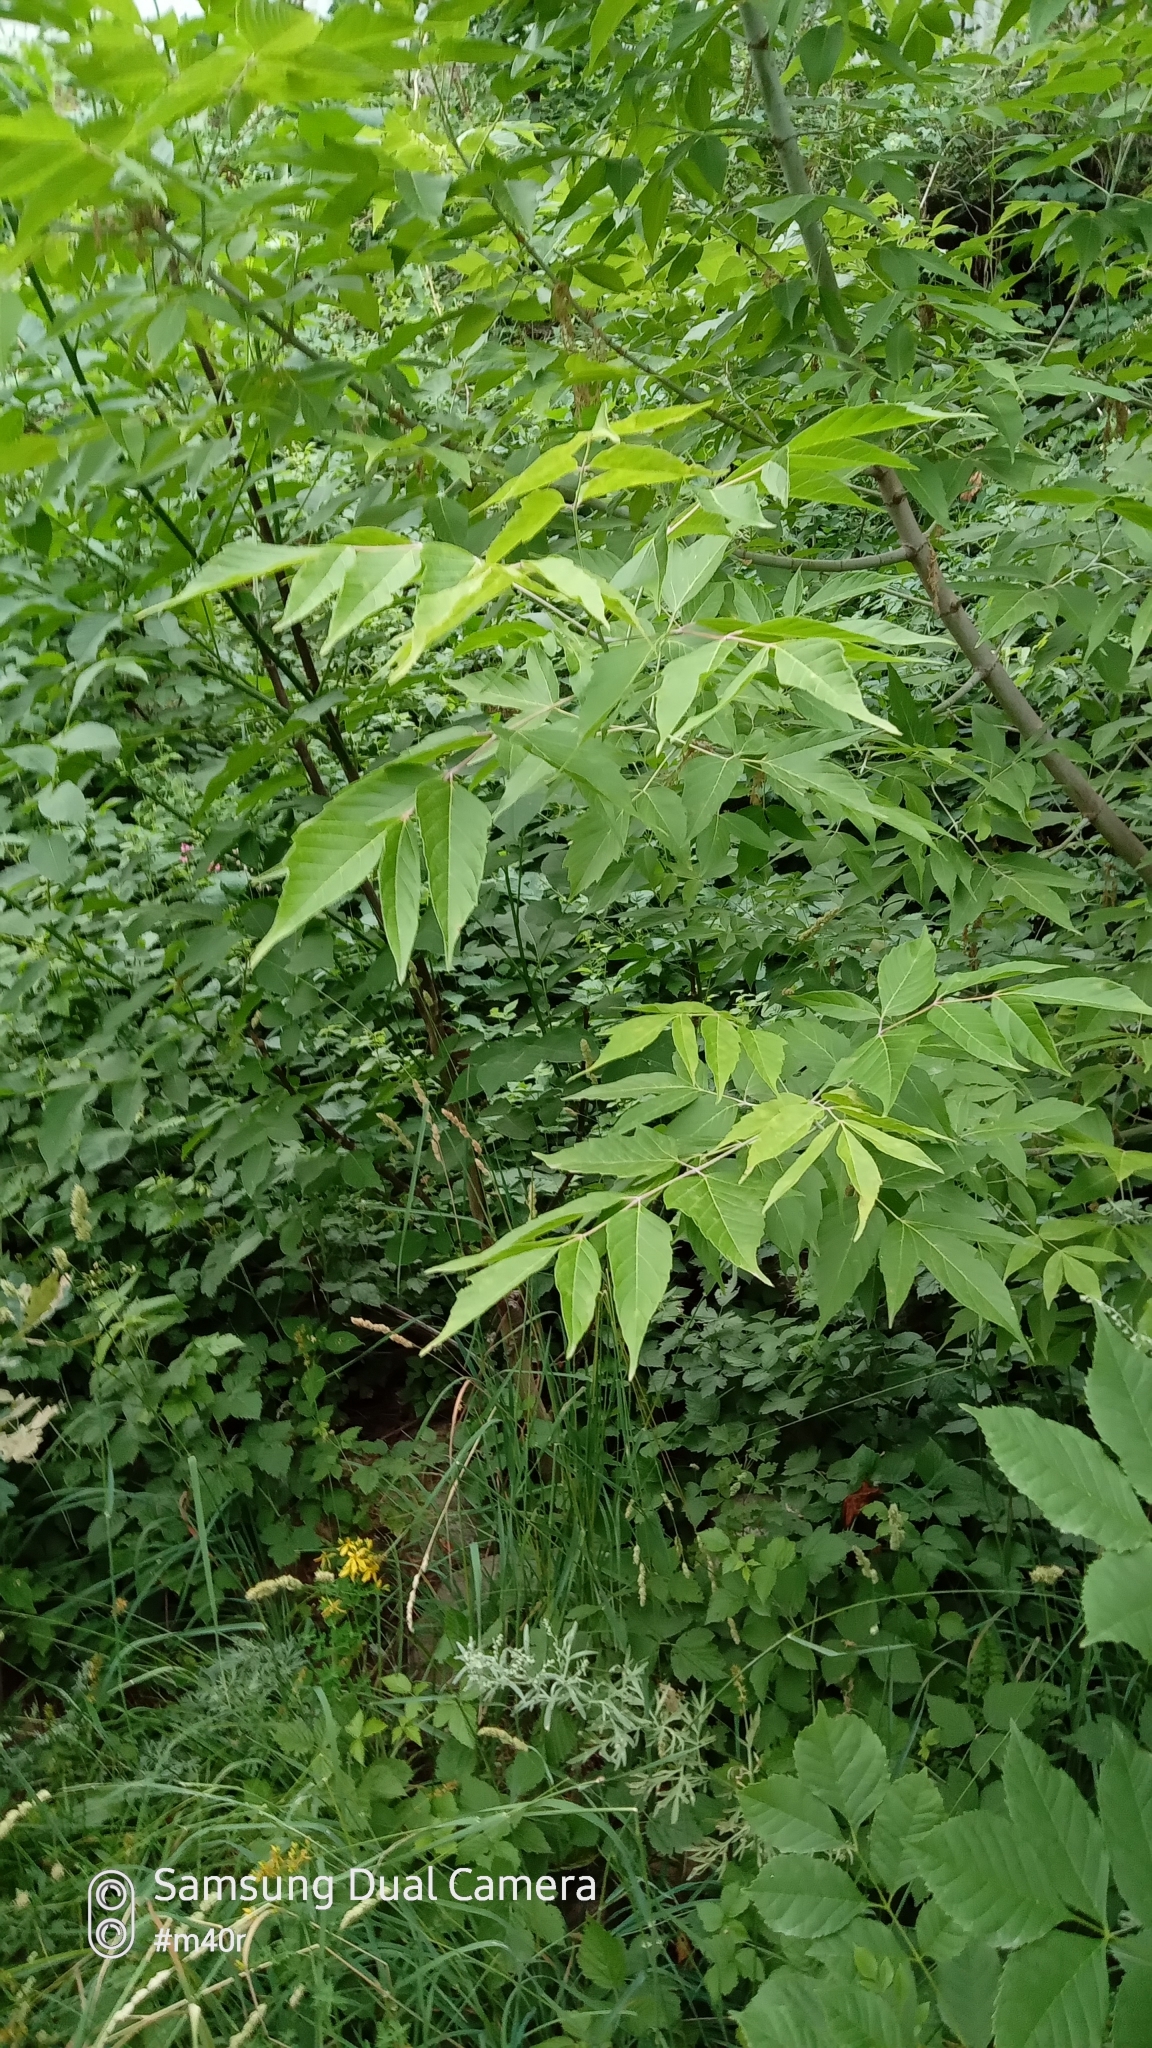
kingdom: Plantae
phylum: Tracheophyta
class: Magnoliopsida
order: Sapindales
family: Sapindaceae
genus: Acer
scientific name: Acer negundo
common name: Ashleaf maple
